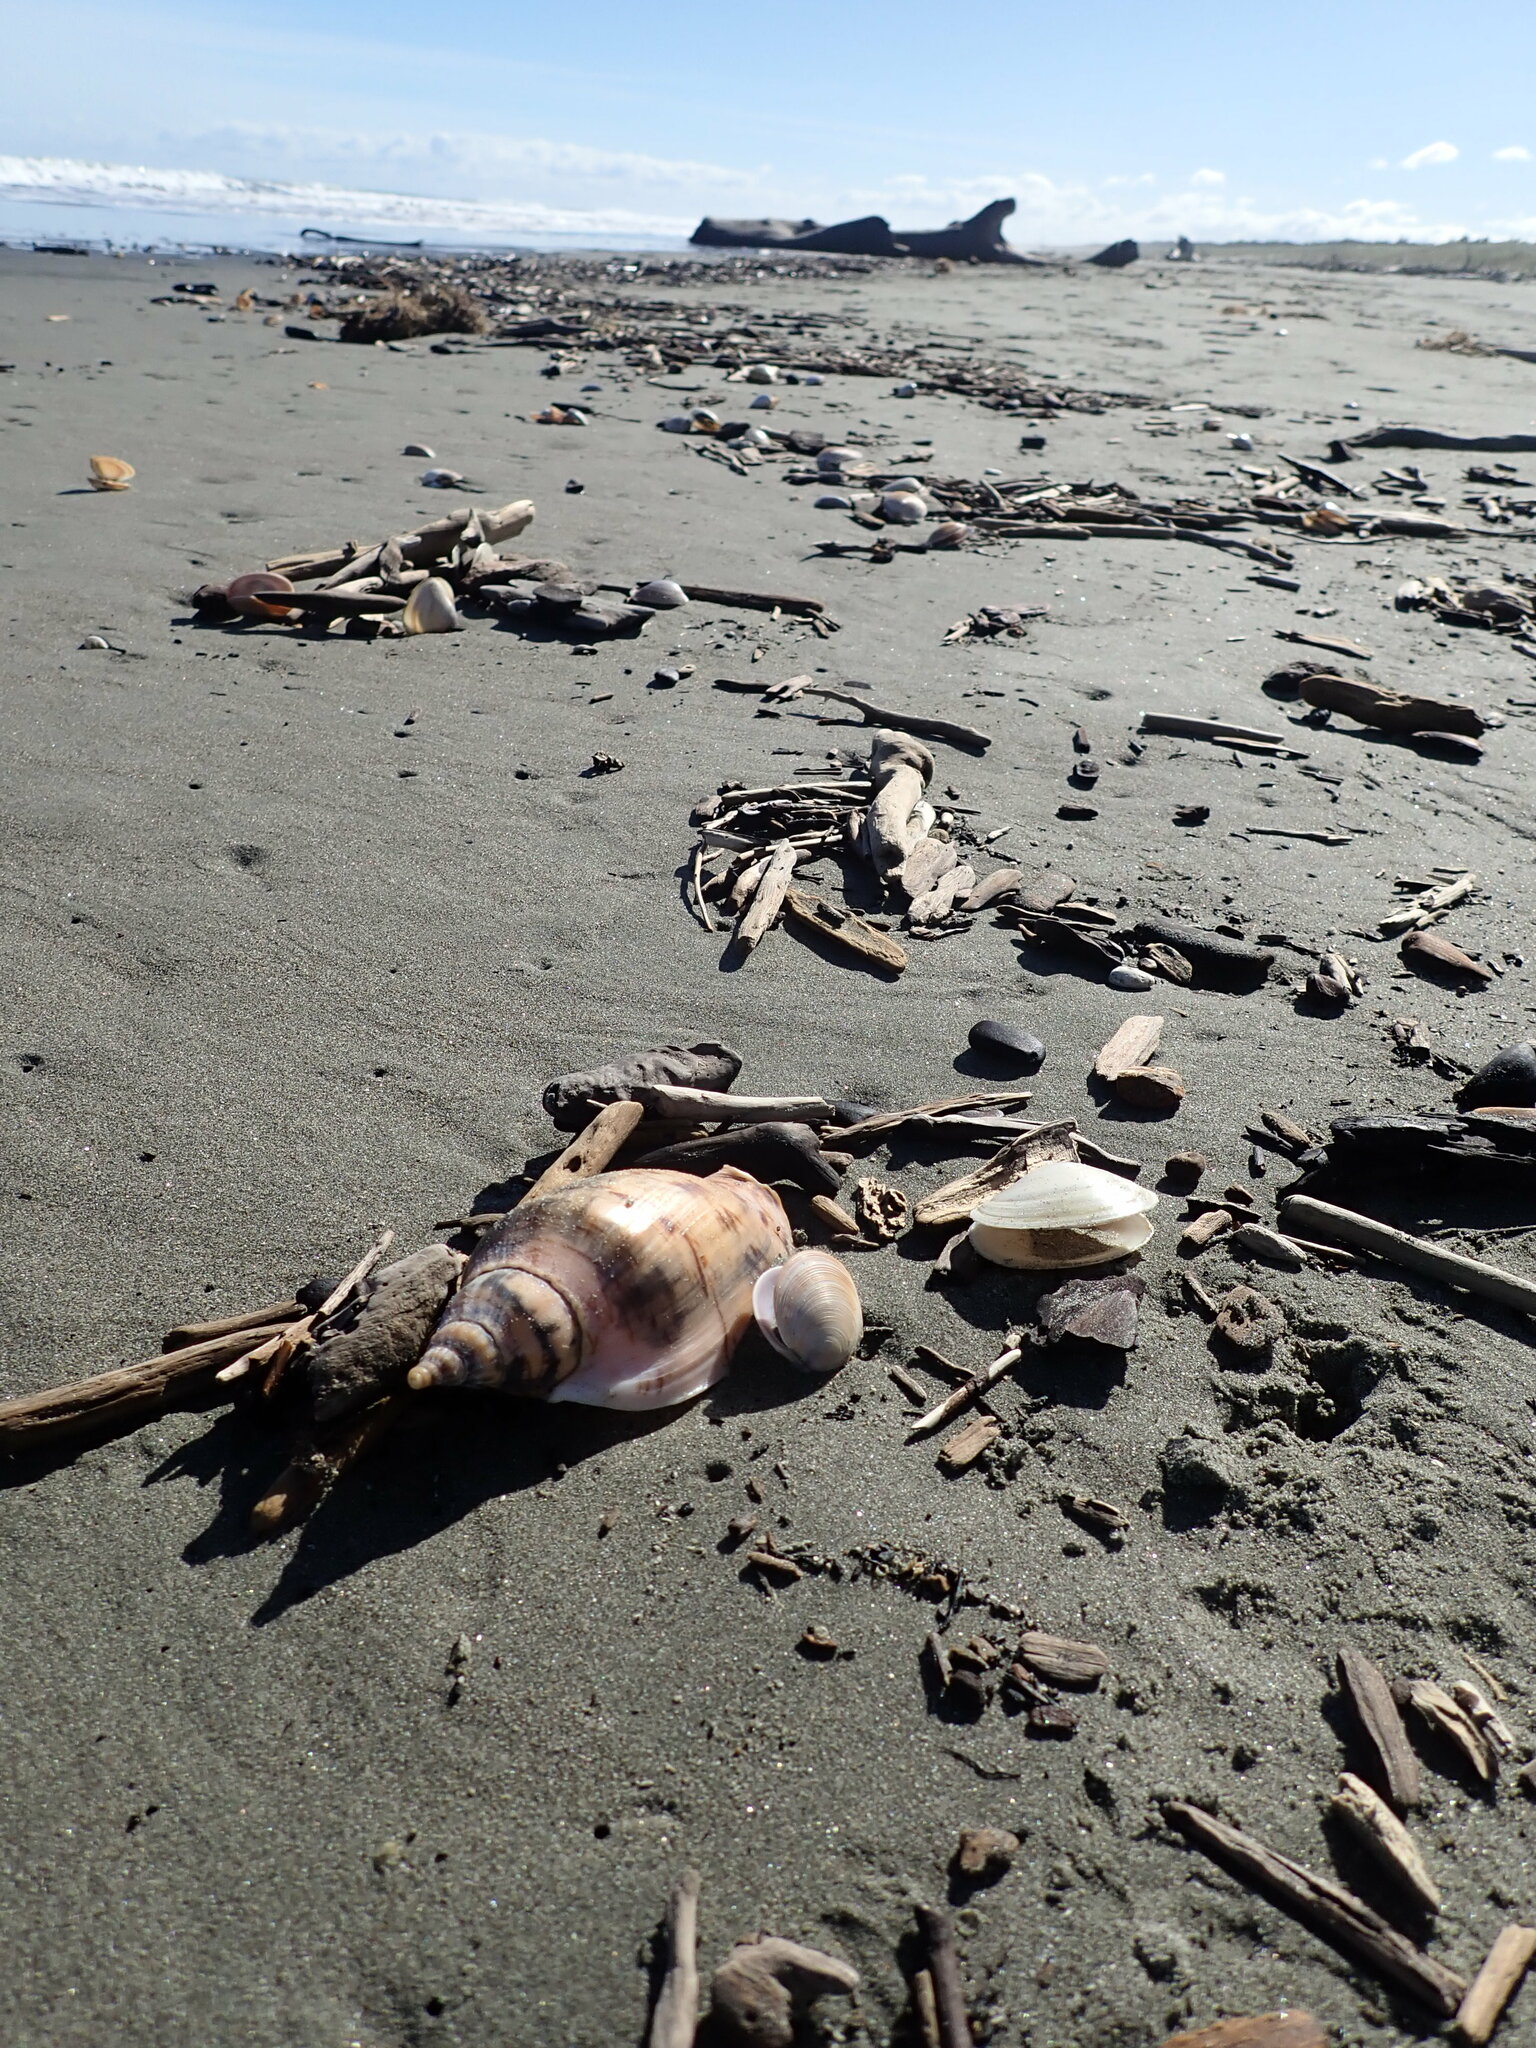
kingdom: Animalia
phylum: Mollusca
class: Gastropoda
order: Neogastropoda
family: Volutidae
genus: Alcithoe
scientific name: Alcithoe arabica
